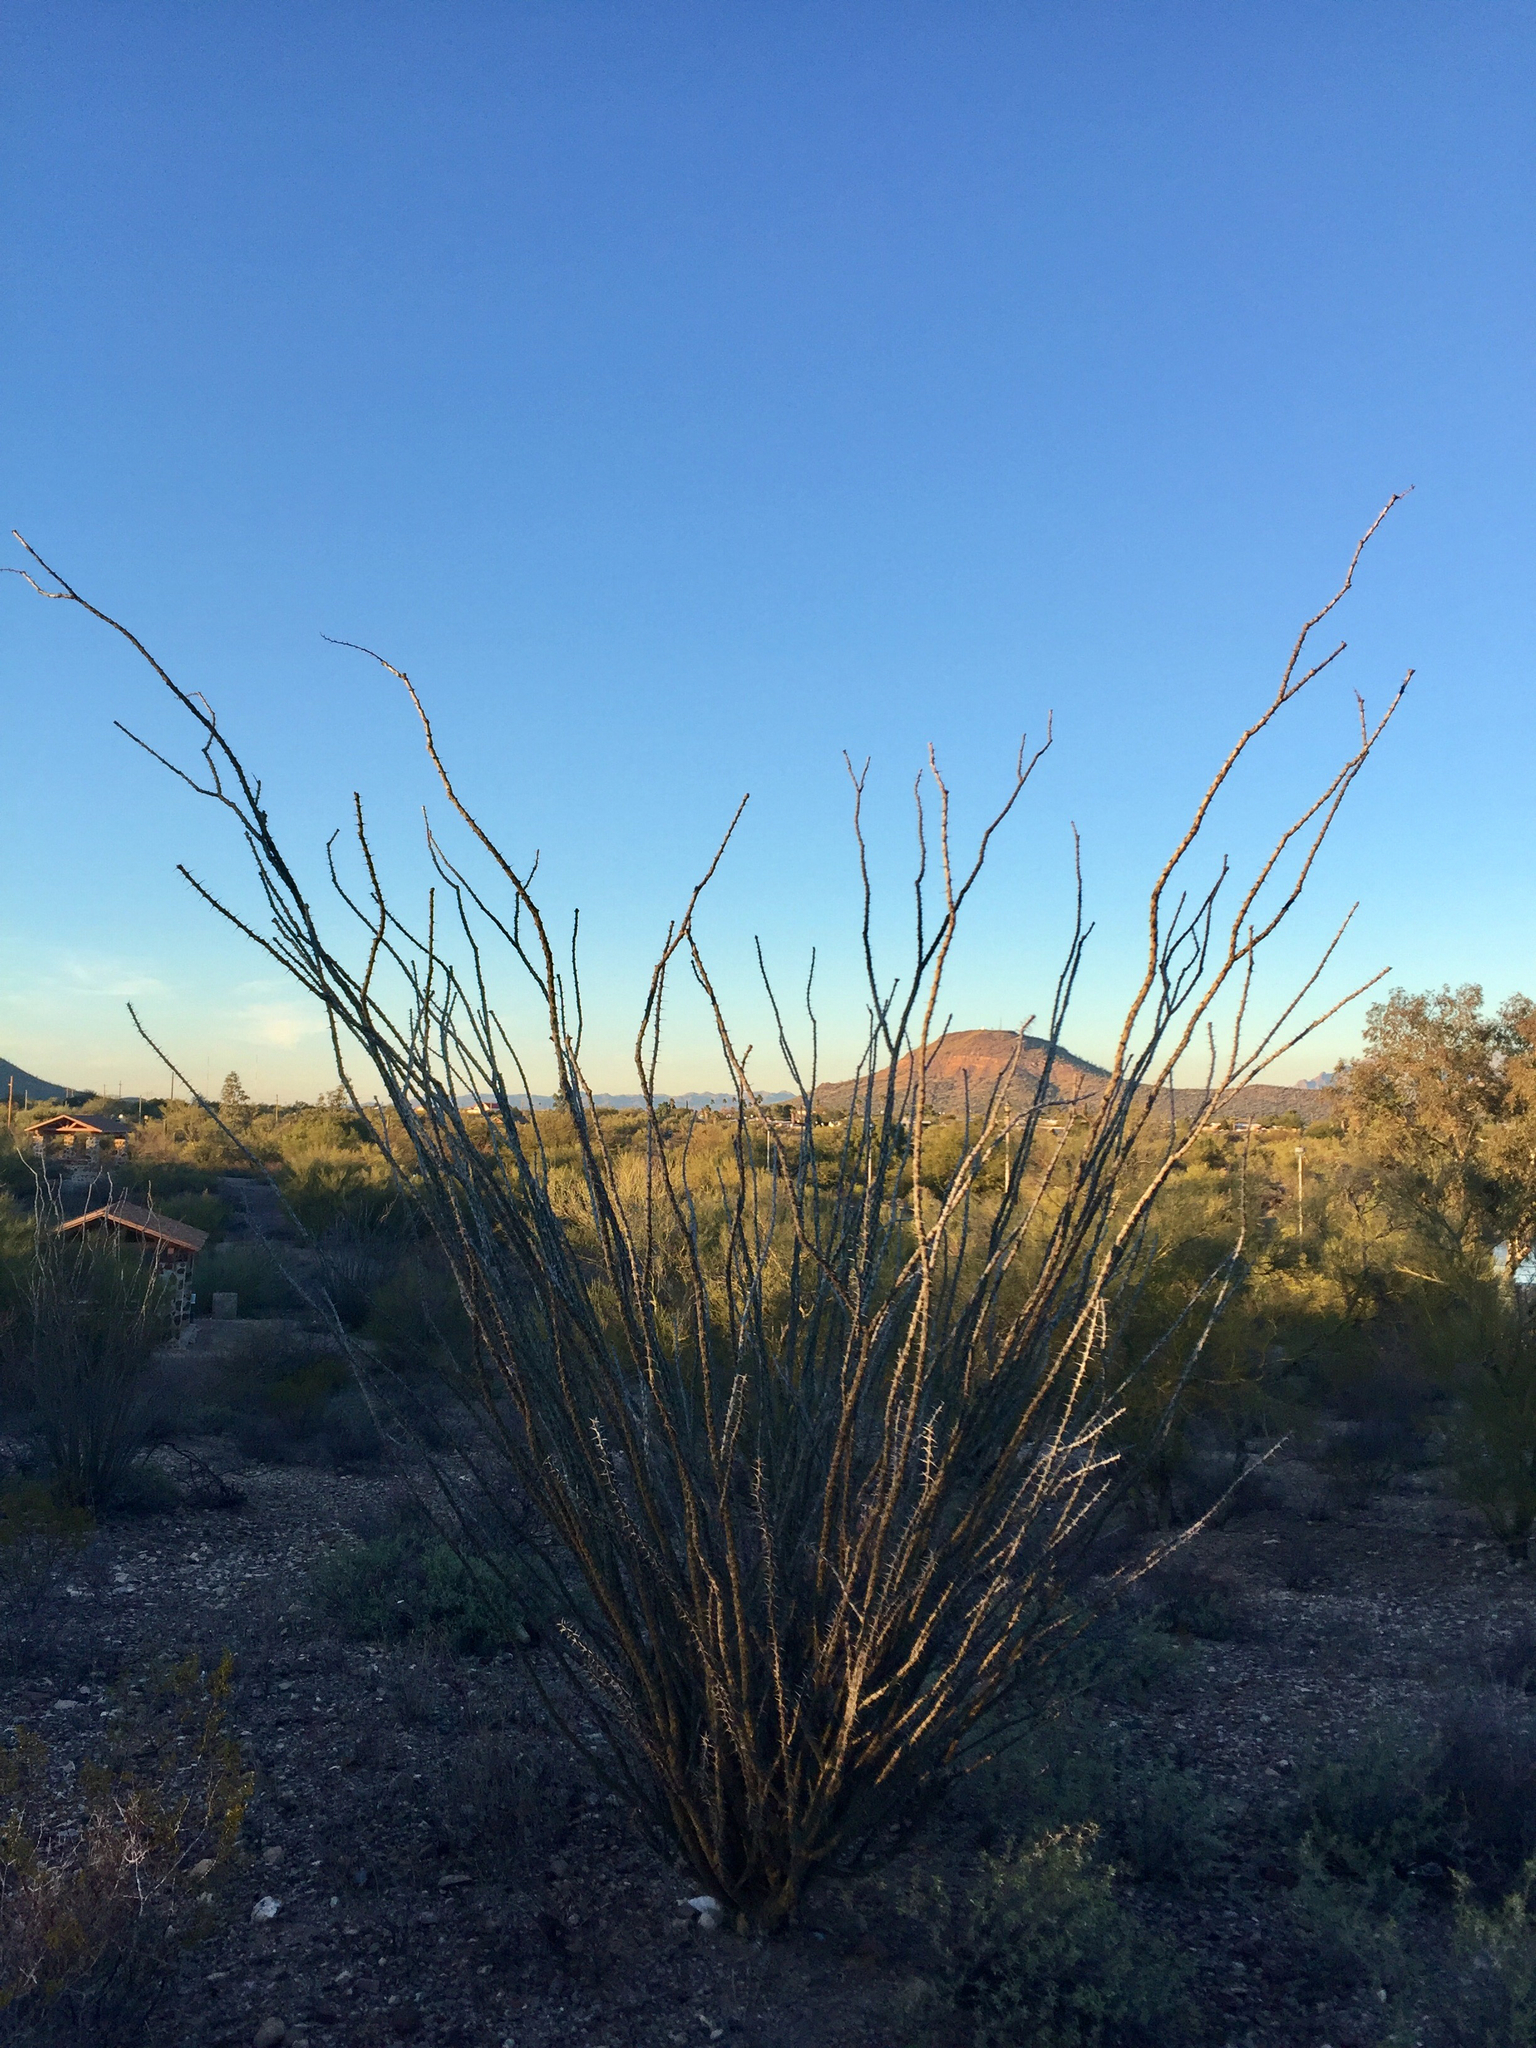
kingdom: Plantae
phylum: Tracheophyta
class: Magnoliopsida
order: Ericales
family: Fouquieriaceae
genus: Fouquieria
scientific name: Fouquieria splendens
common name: Vine-cactus
